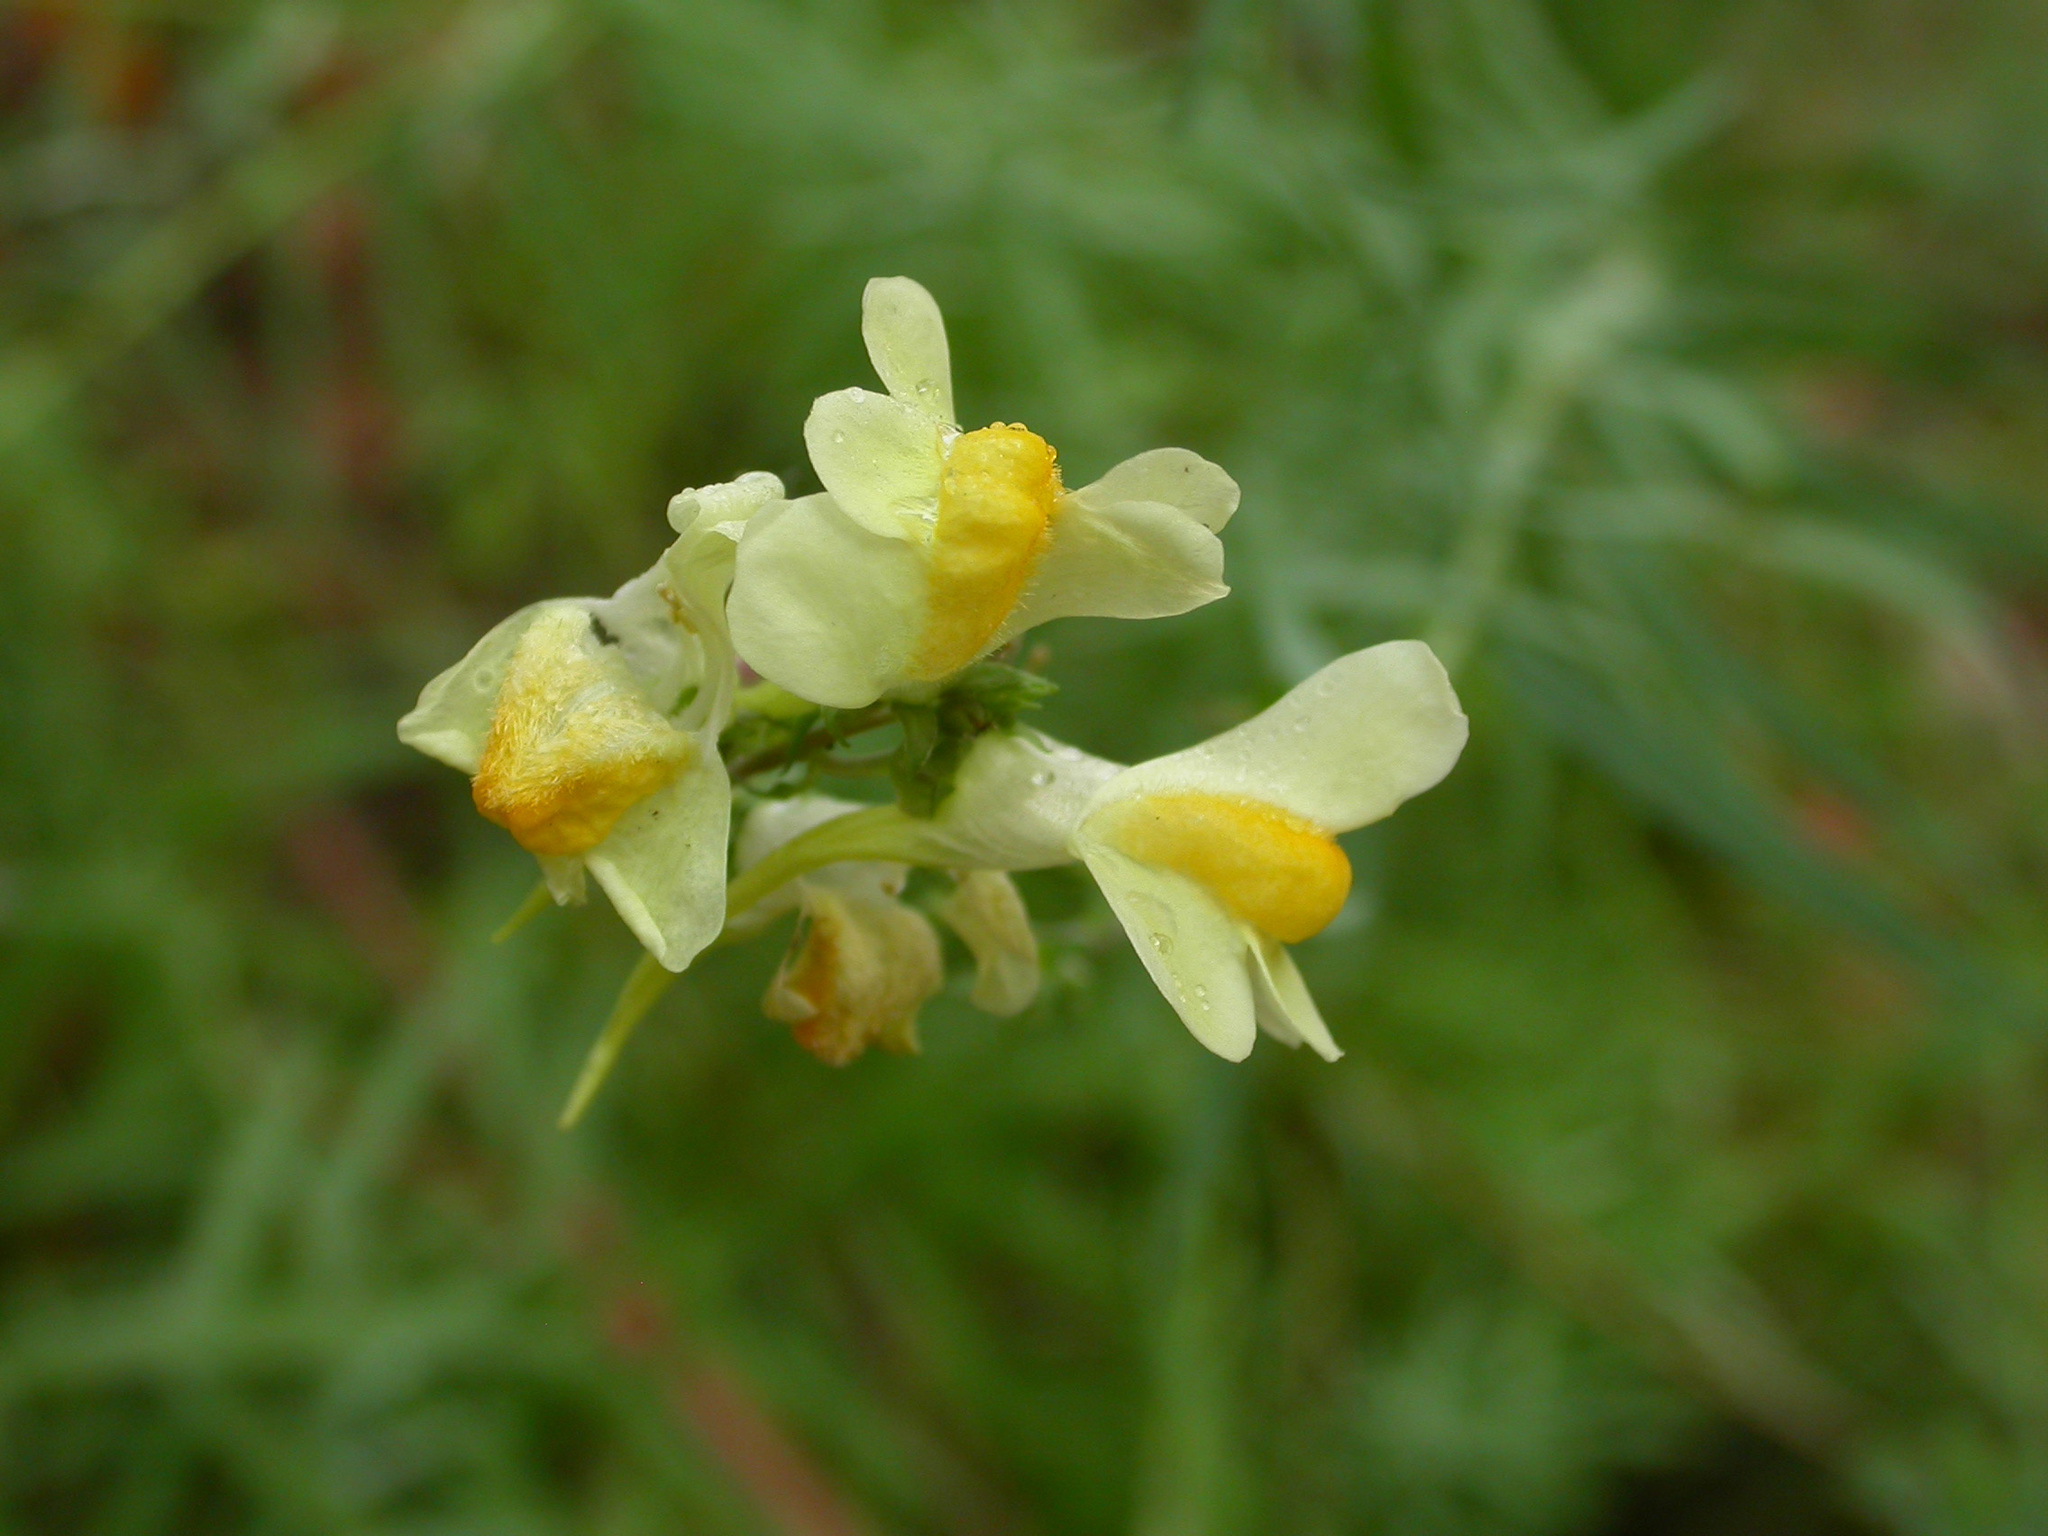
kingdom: Plantae
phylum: Tracheophyta
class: Magnoliopsida
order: Lamiales
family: Plantaginaceae
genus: Linaria
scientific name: Linaria vulgaris
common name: Butter and eggs
